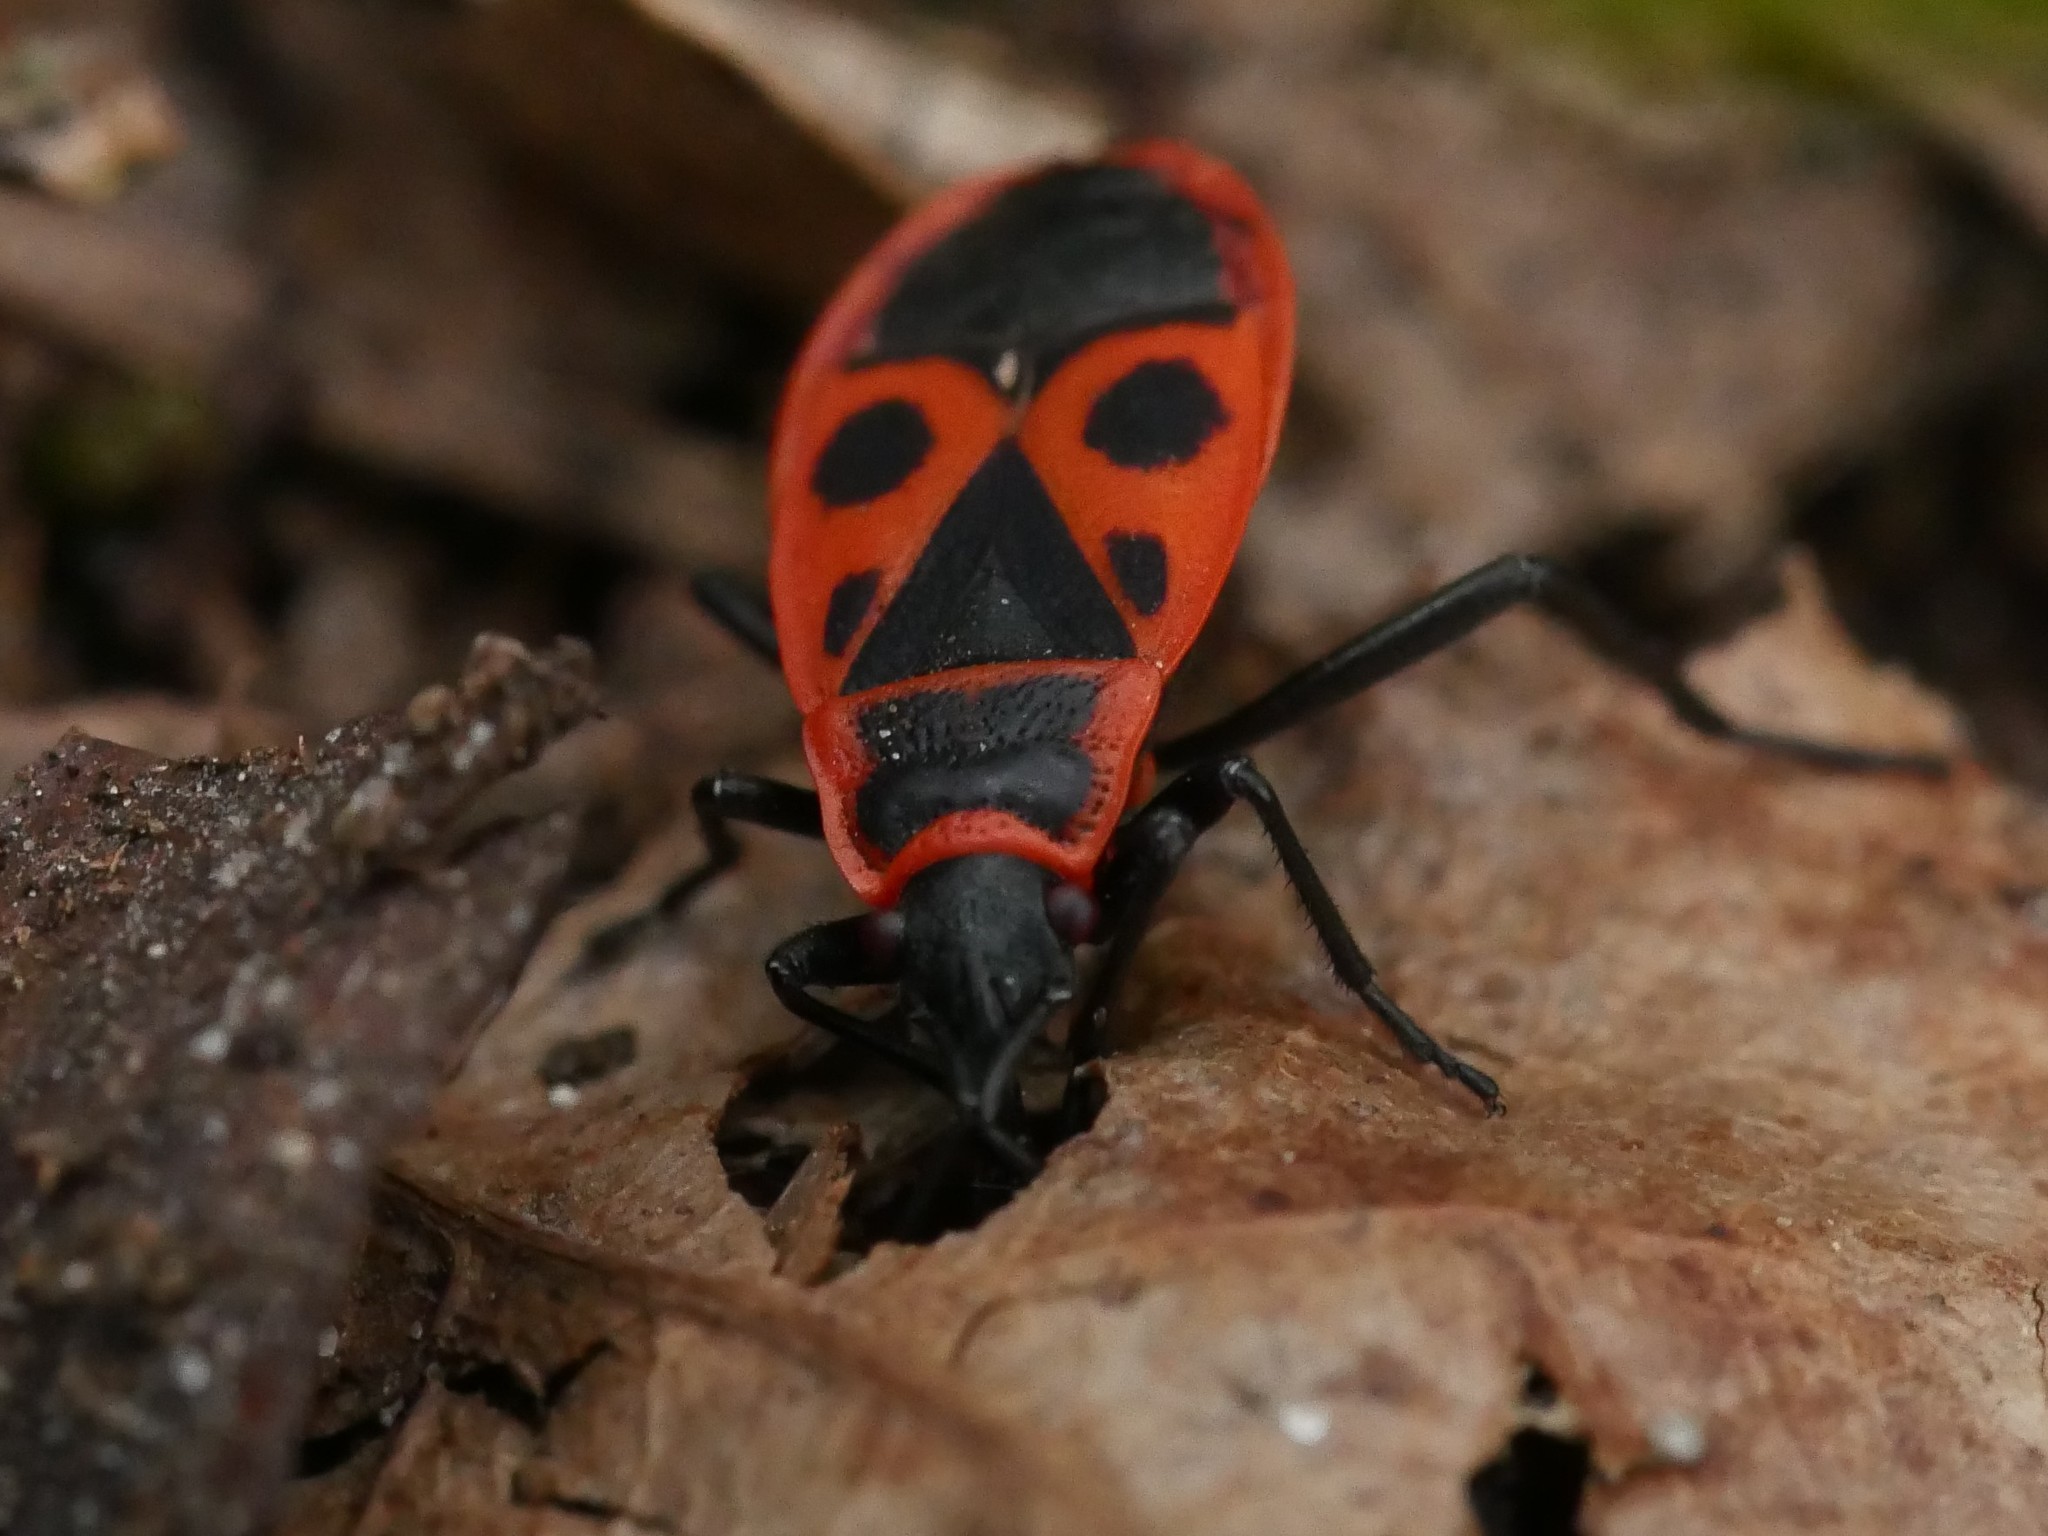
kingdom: Animalia
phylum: Arthropoda
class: Insecta
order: Hemiptera
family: Pyrrhocoridae
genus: Pyrrhocoris
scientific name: Pyrrhocoris apterus
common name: Firebug
